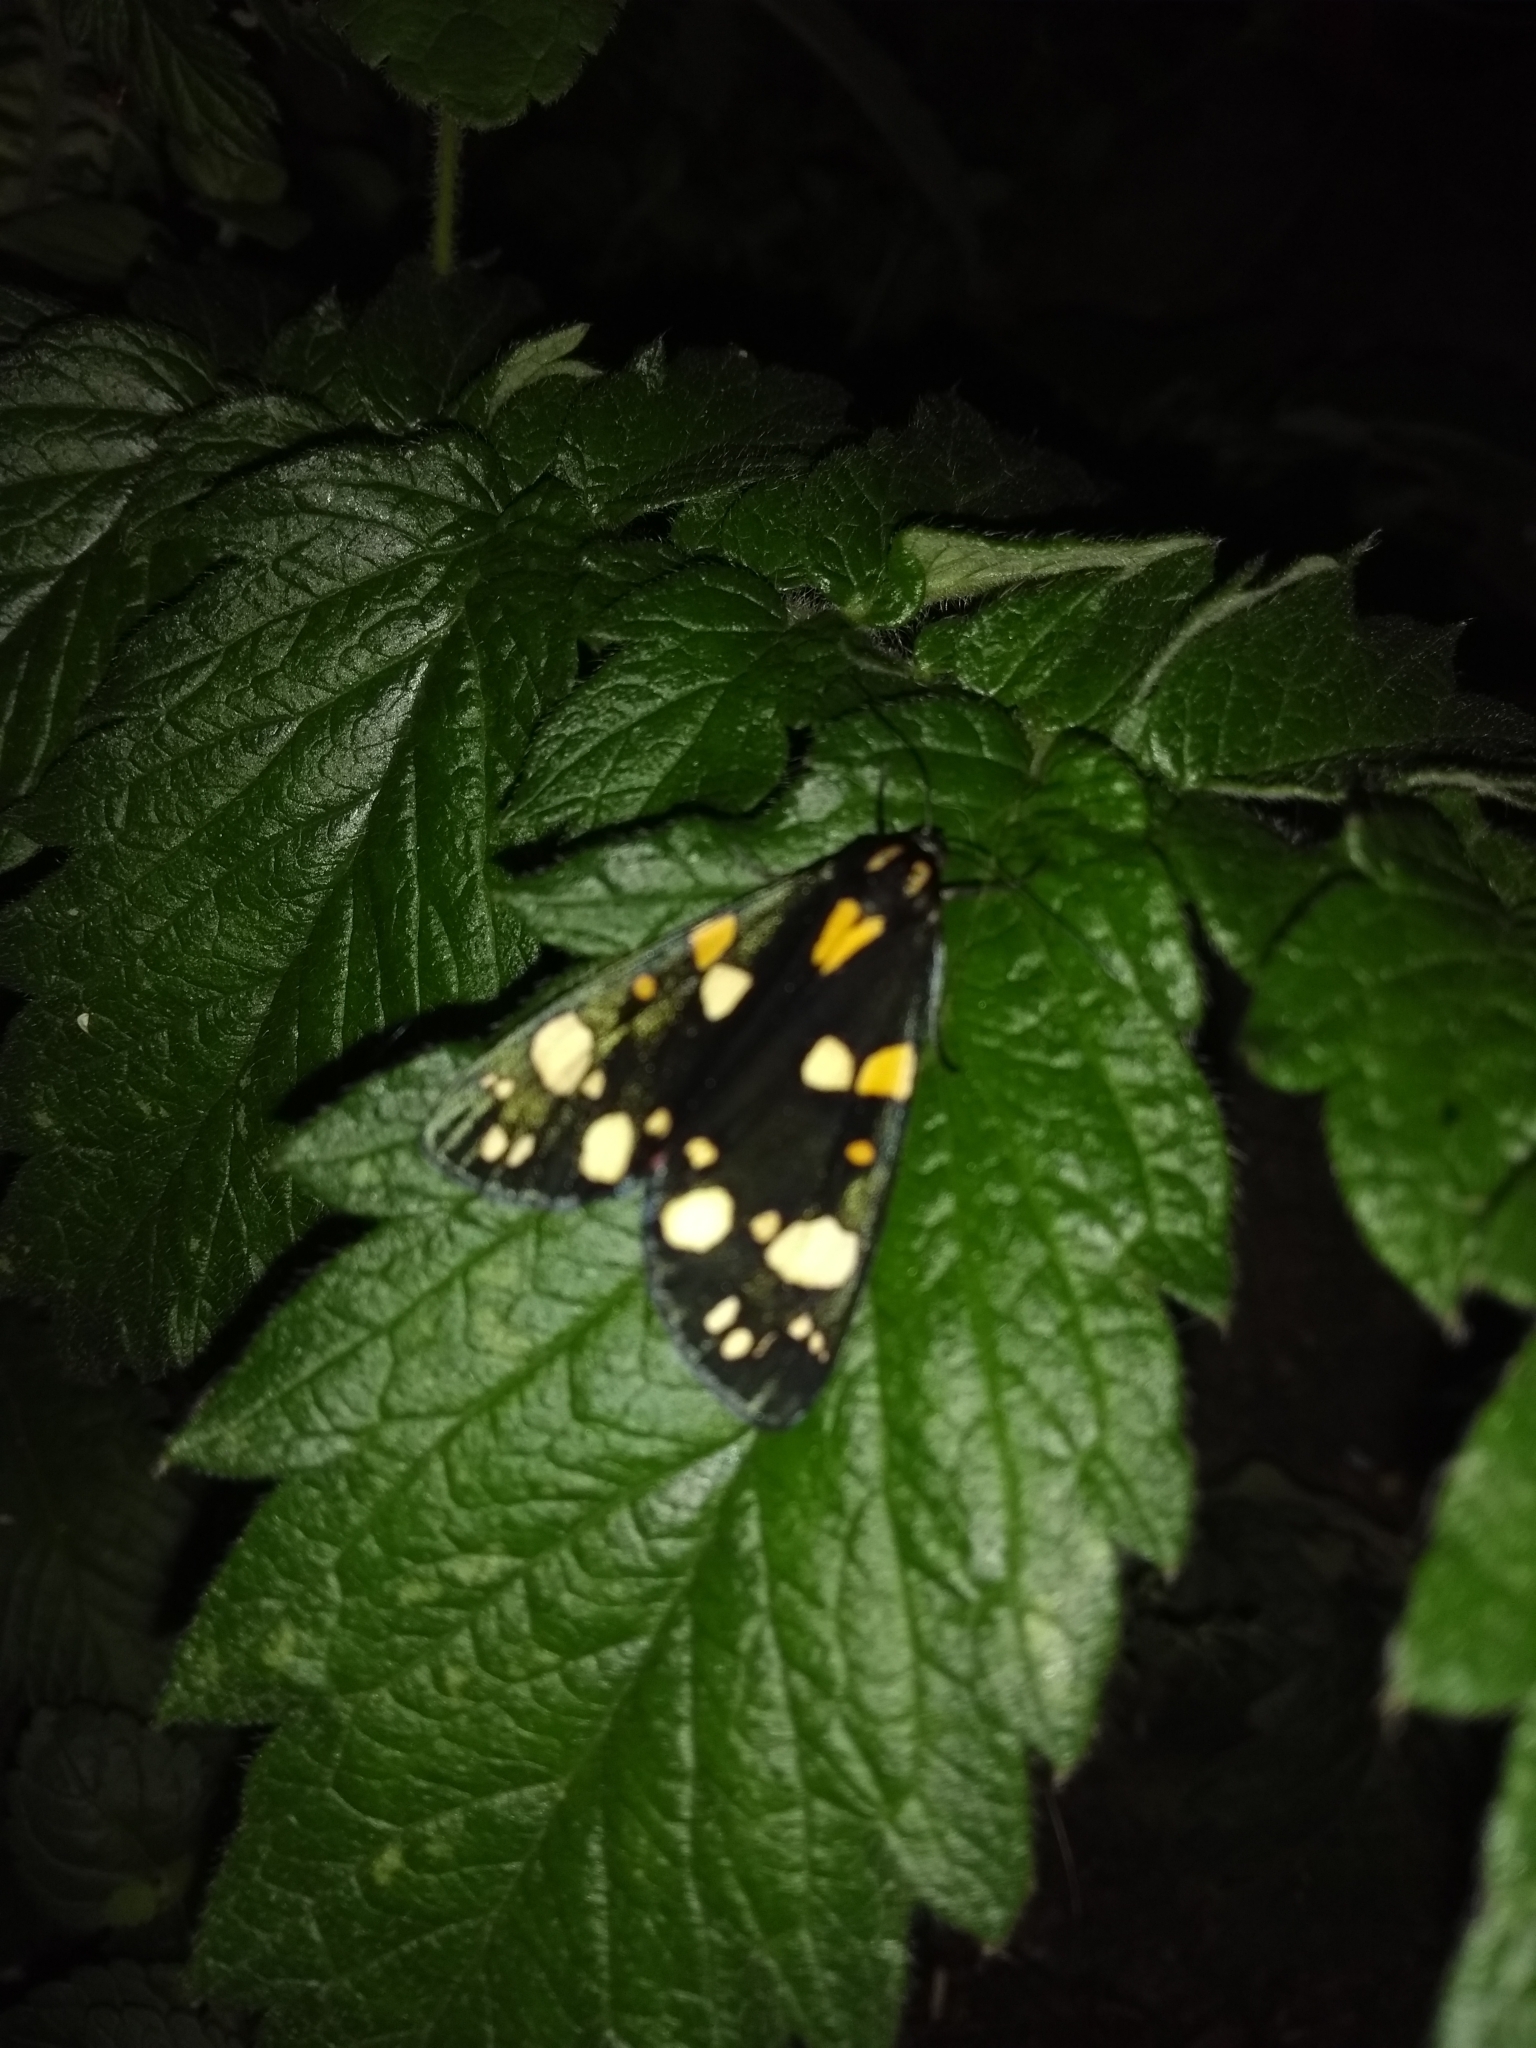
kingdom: Animalia
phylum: Arthropoda
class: Insecta
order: Lepidoptera
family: Erebidae
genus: Callimorpha
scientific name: Callimorpha dominula
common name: Scarlet tiger
